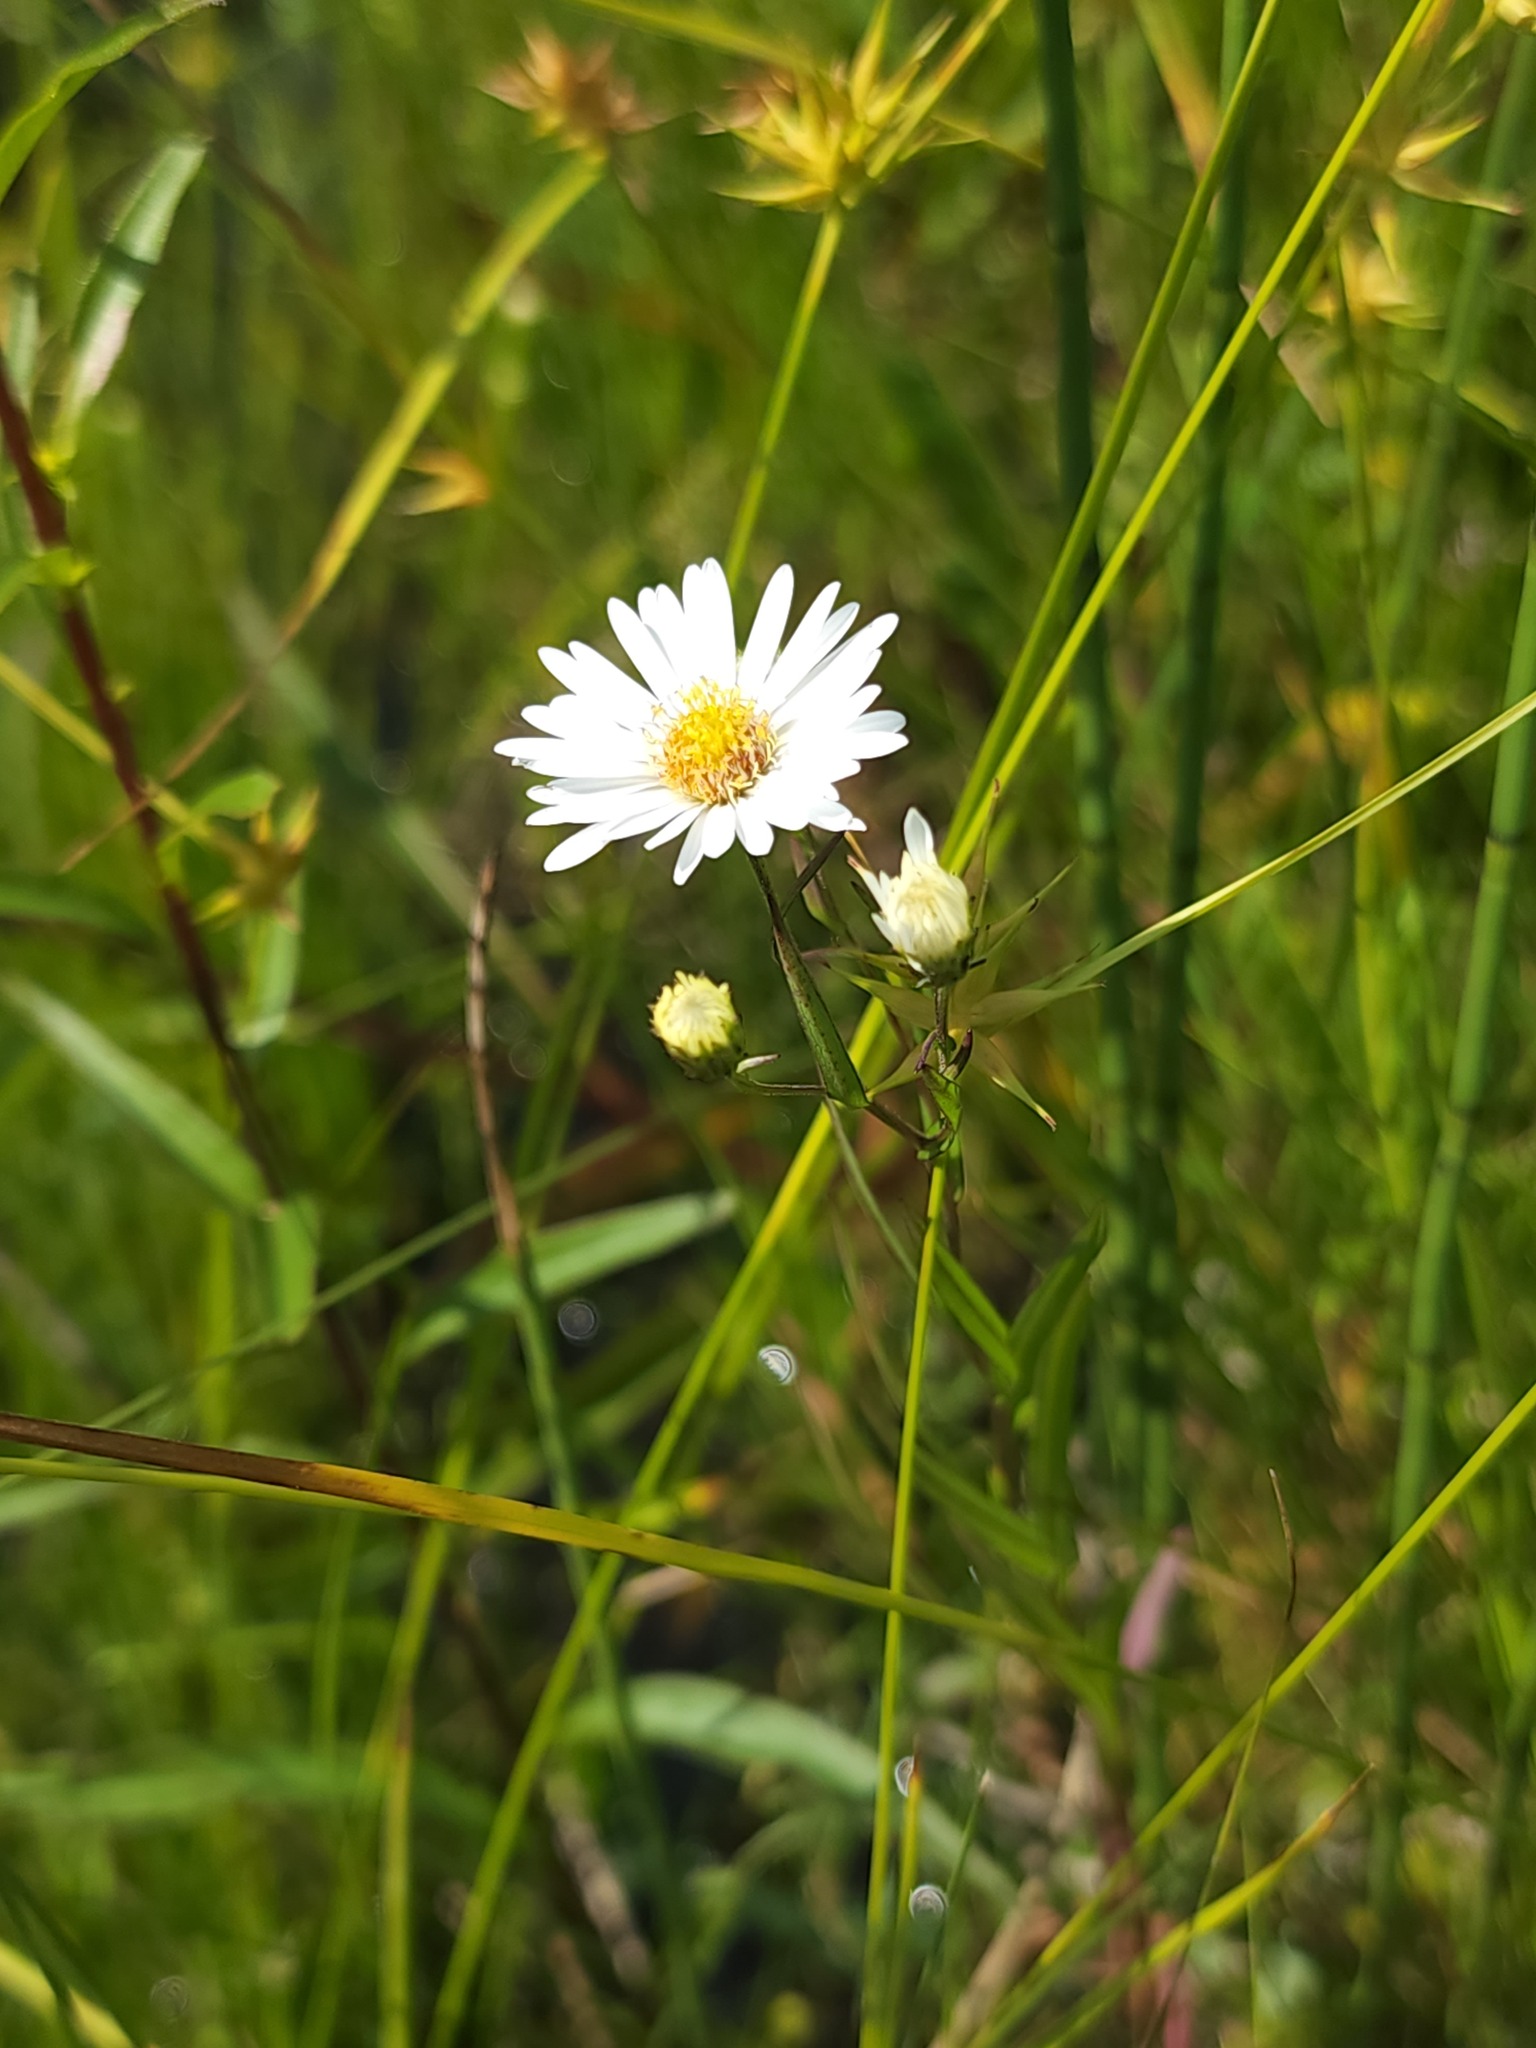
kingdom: Plantae
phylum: Tracheophyta
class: Magnoliopsida
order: Asterales
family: Asteraceae
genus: Symphyotrichum
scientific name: Symphyotrichum boreale
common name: Northern bog aster
